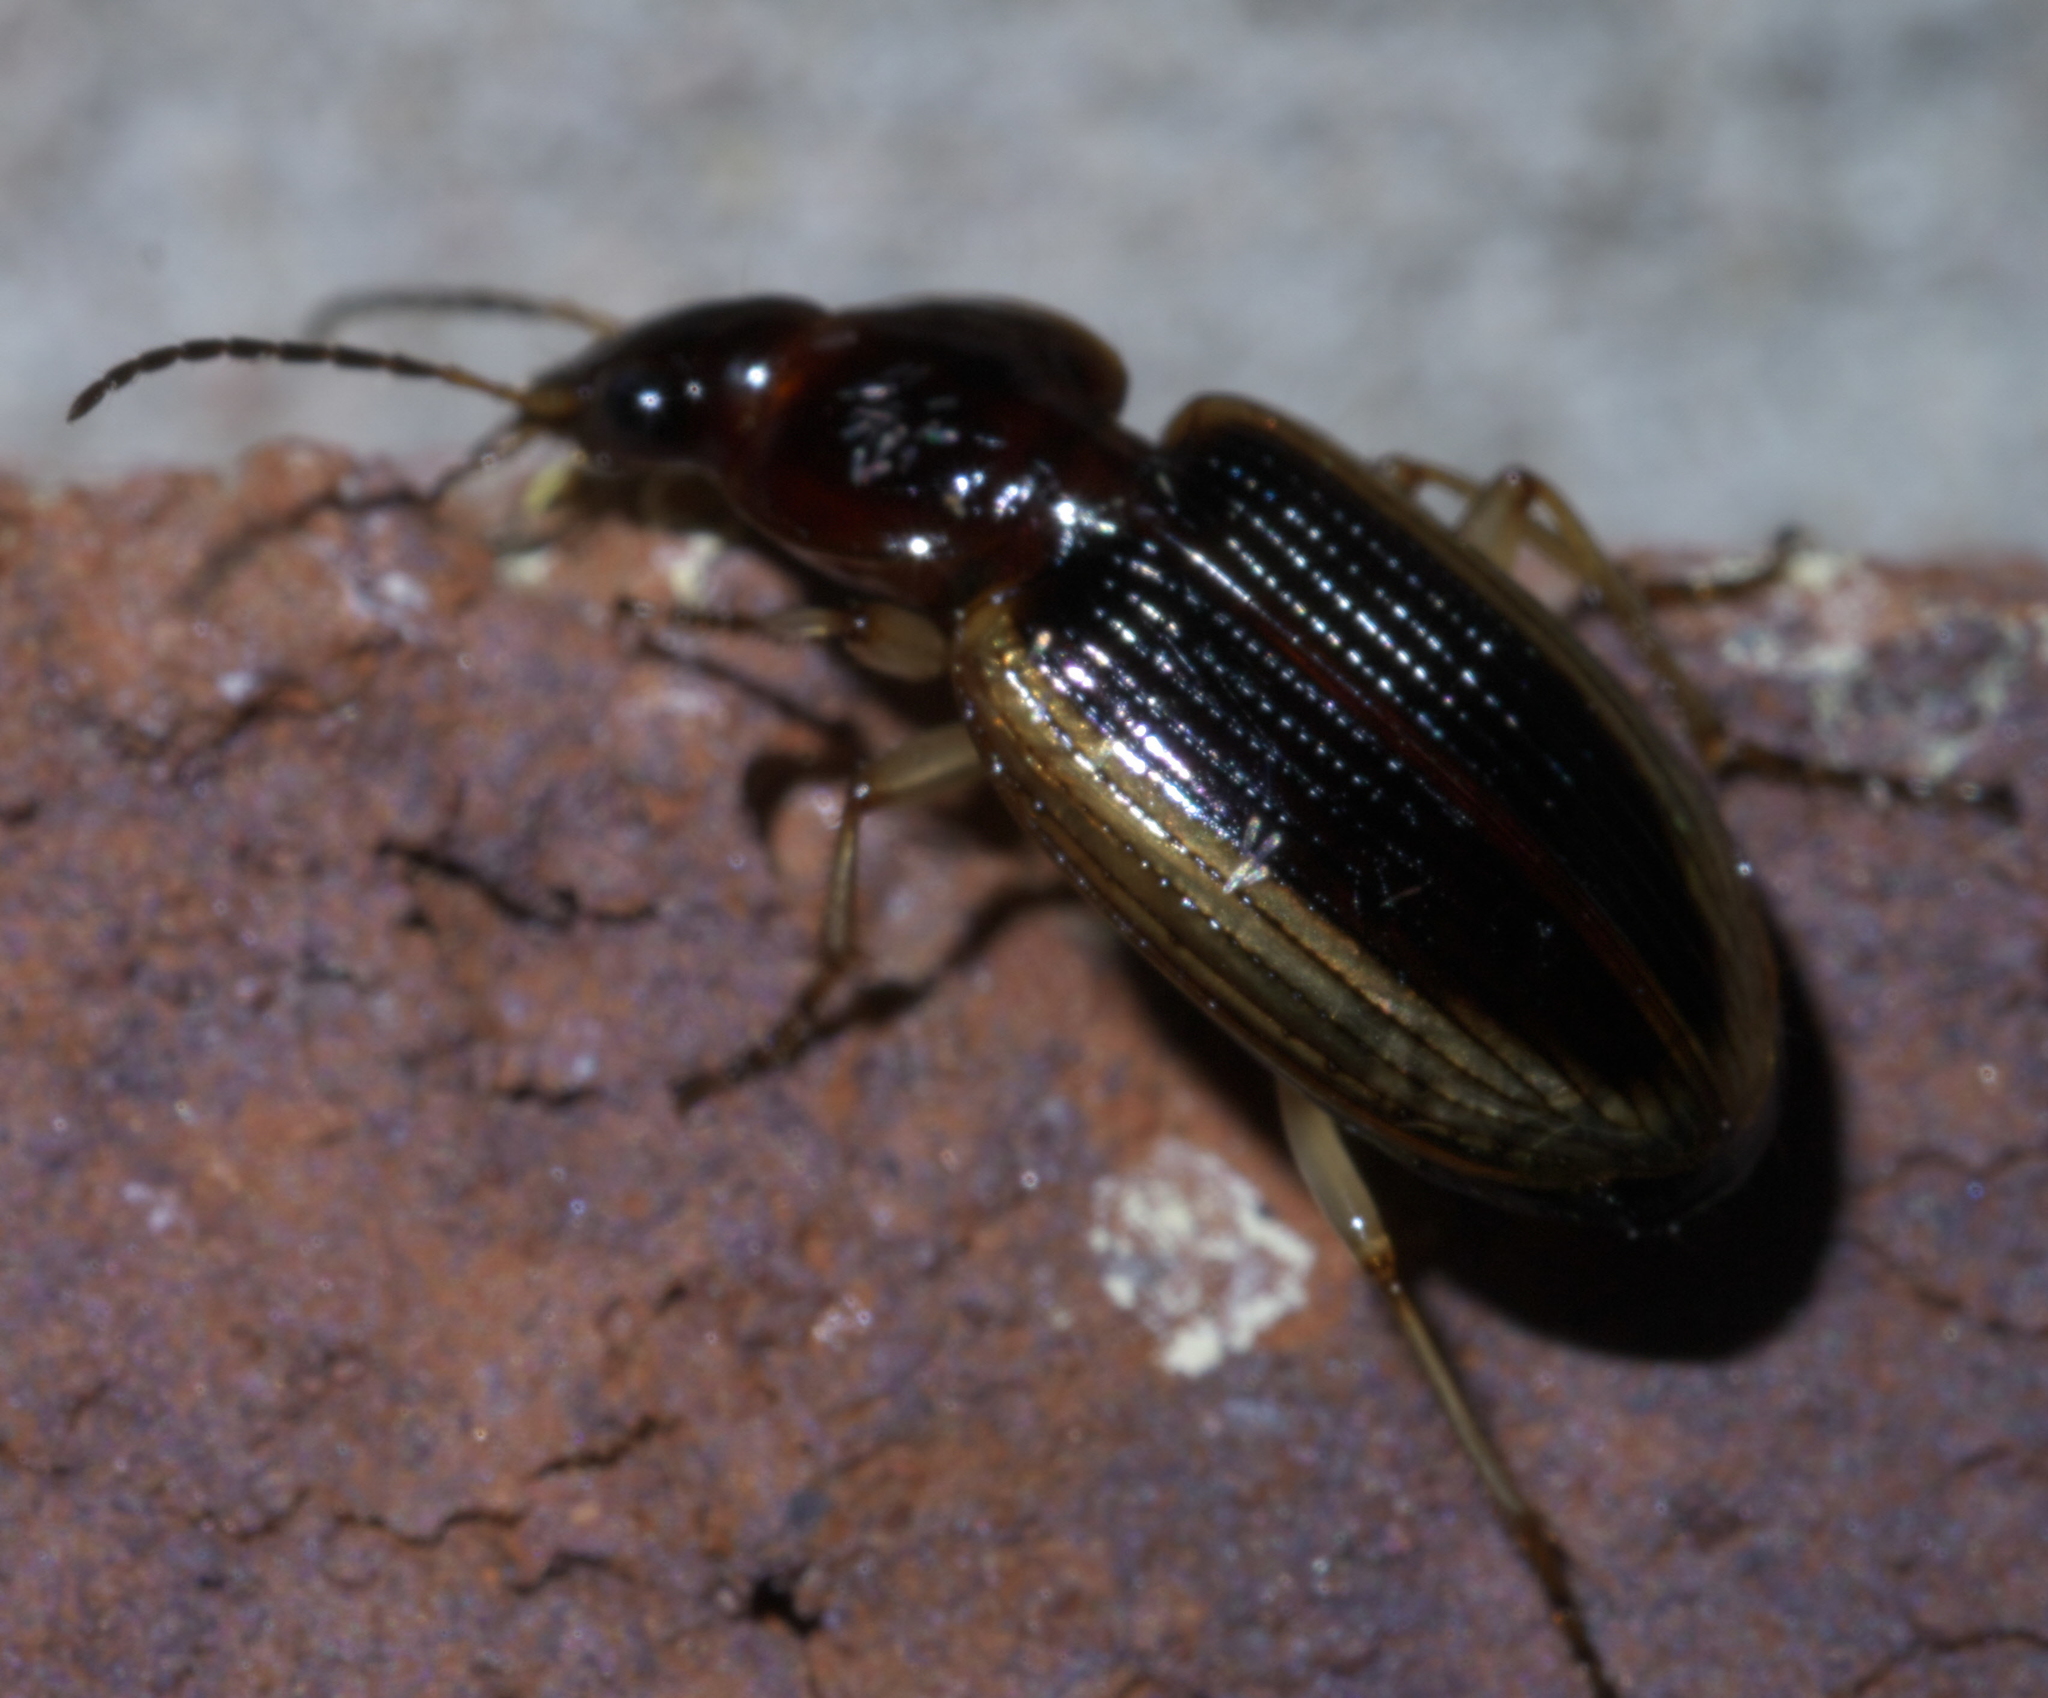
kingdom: Animalia
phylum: Arthropoda
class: Insecta
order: Coleoptera
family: Carabidae
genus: Agonum
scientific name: Agonum pallipes
